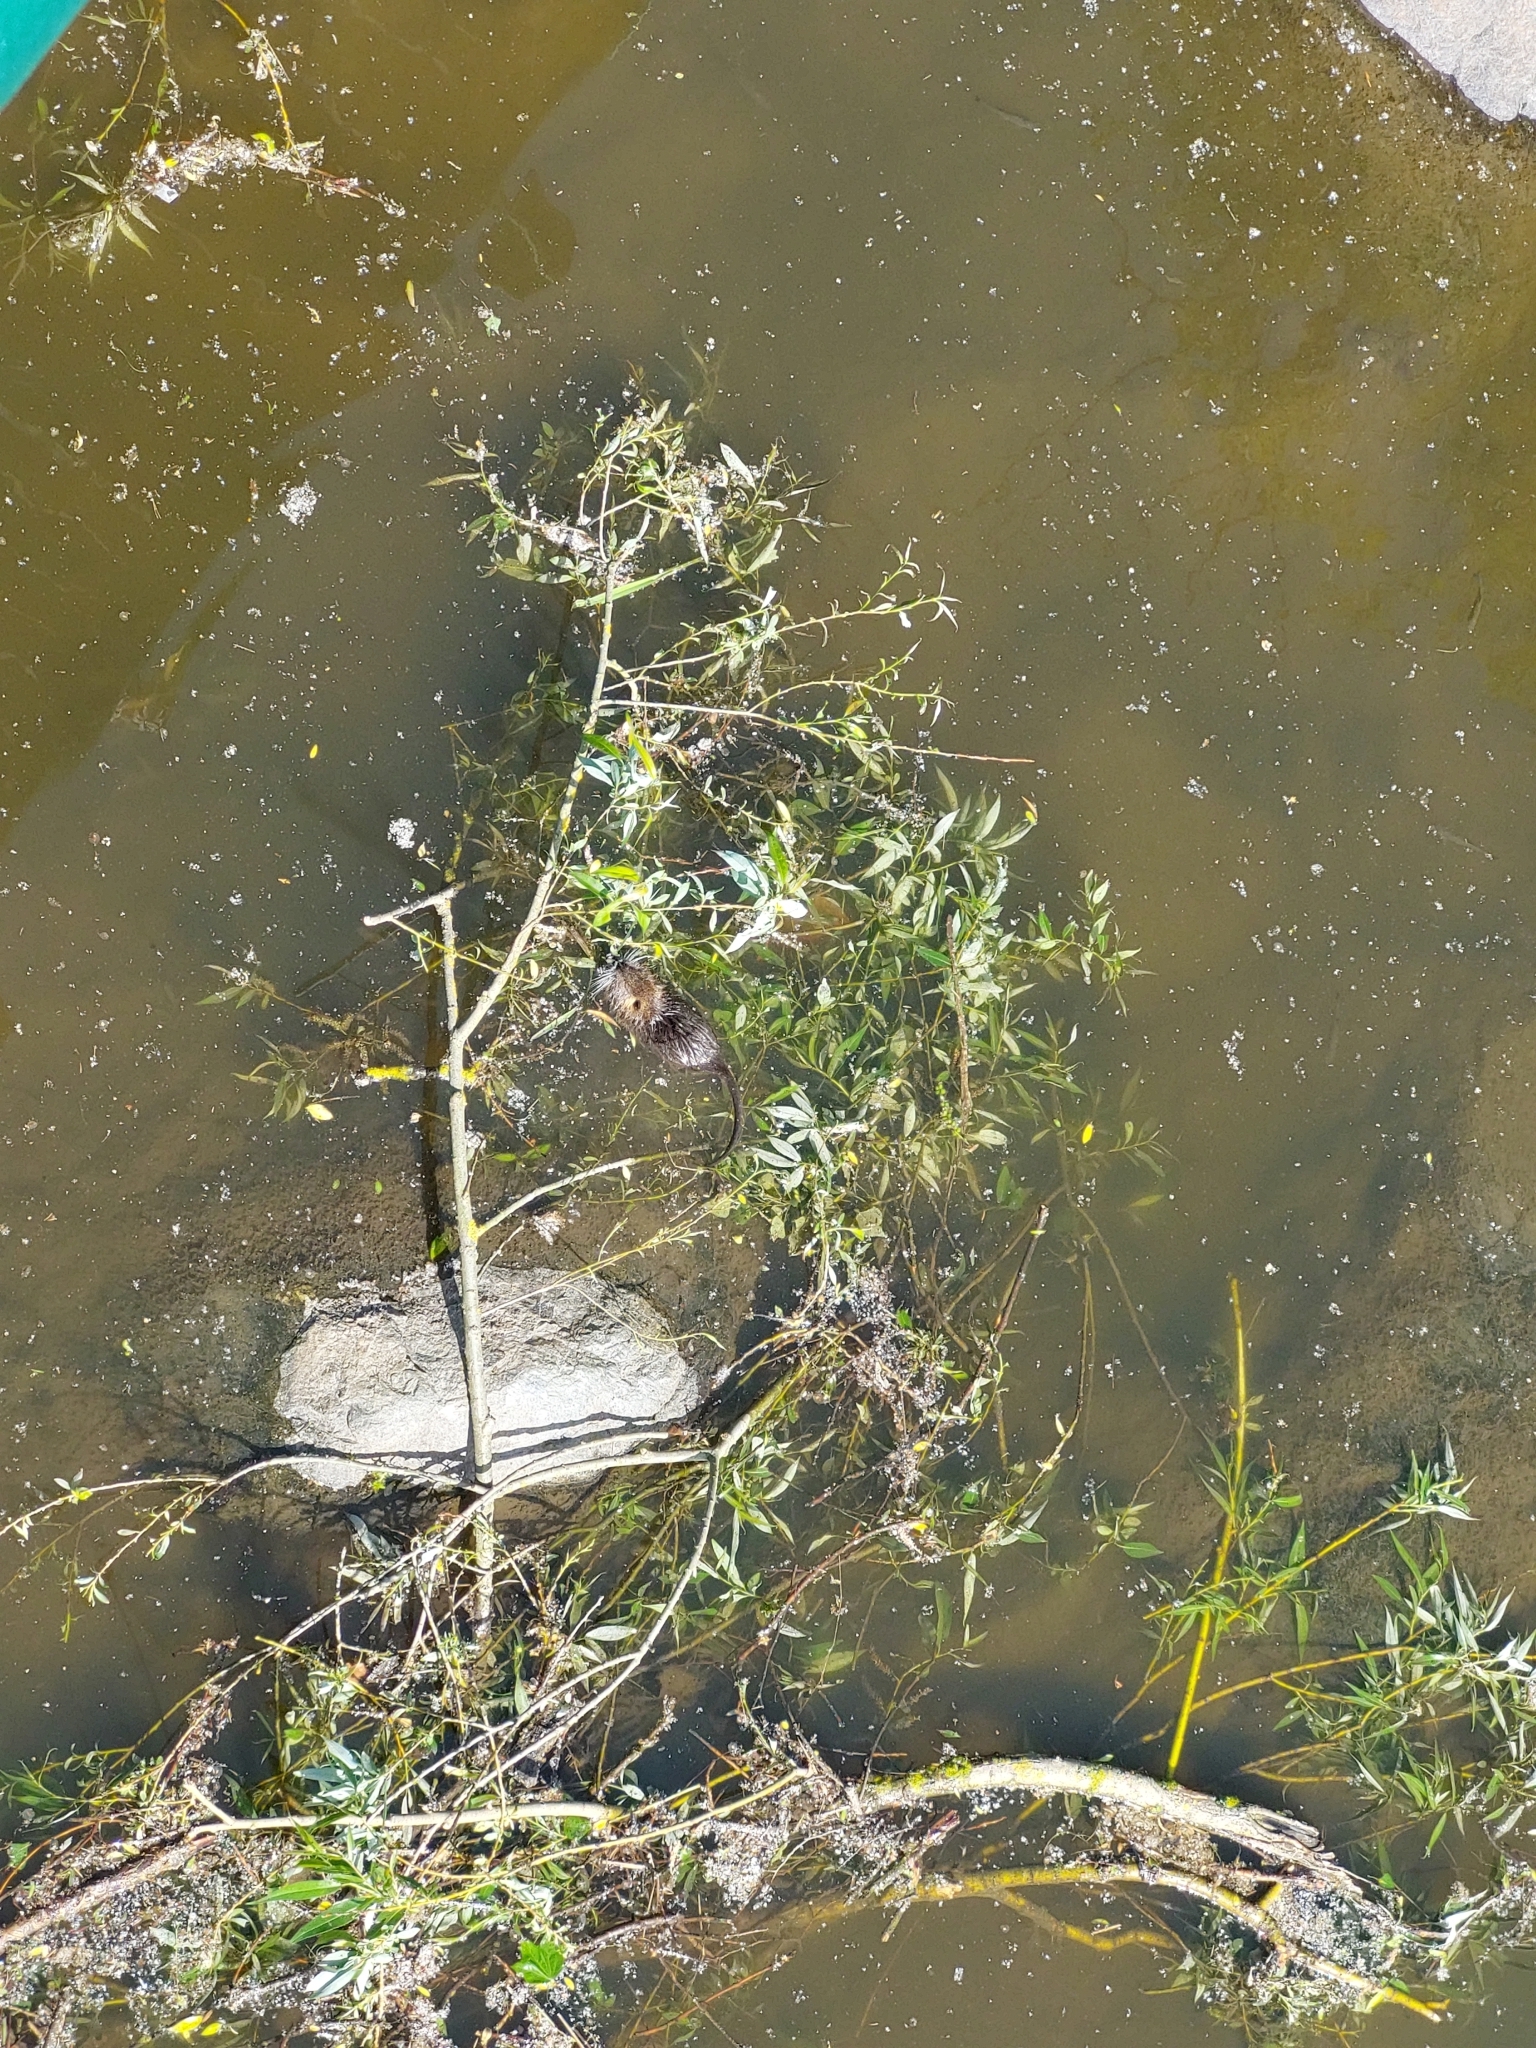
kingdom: Animalia
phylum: Chordata
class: Mammalia
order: Rodentia
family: Myocastoridae
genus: Myocastor
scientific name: Myocastor coypus
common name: Coypu
